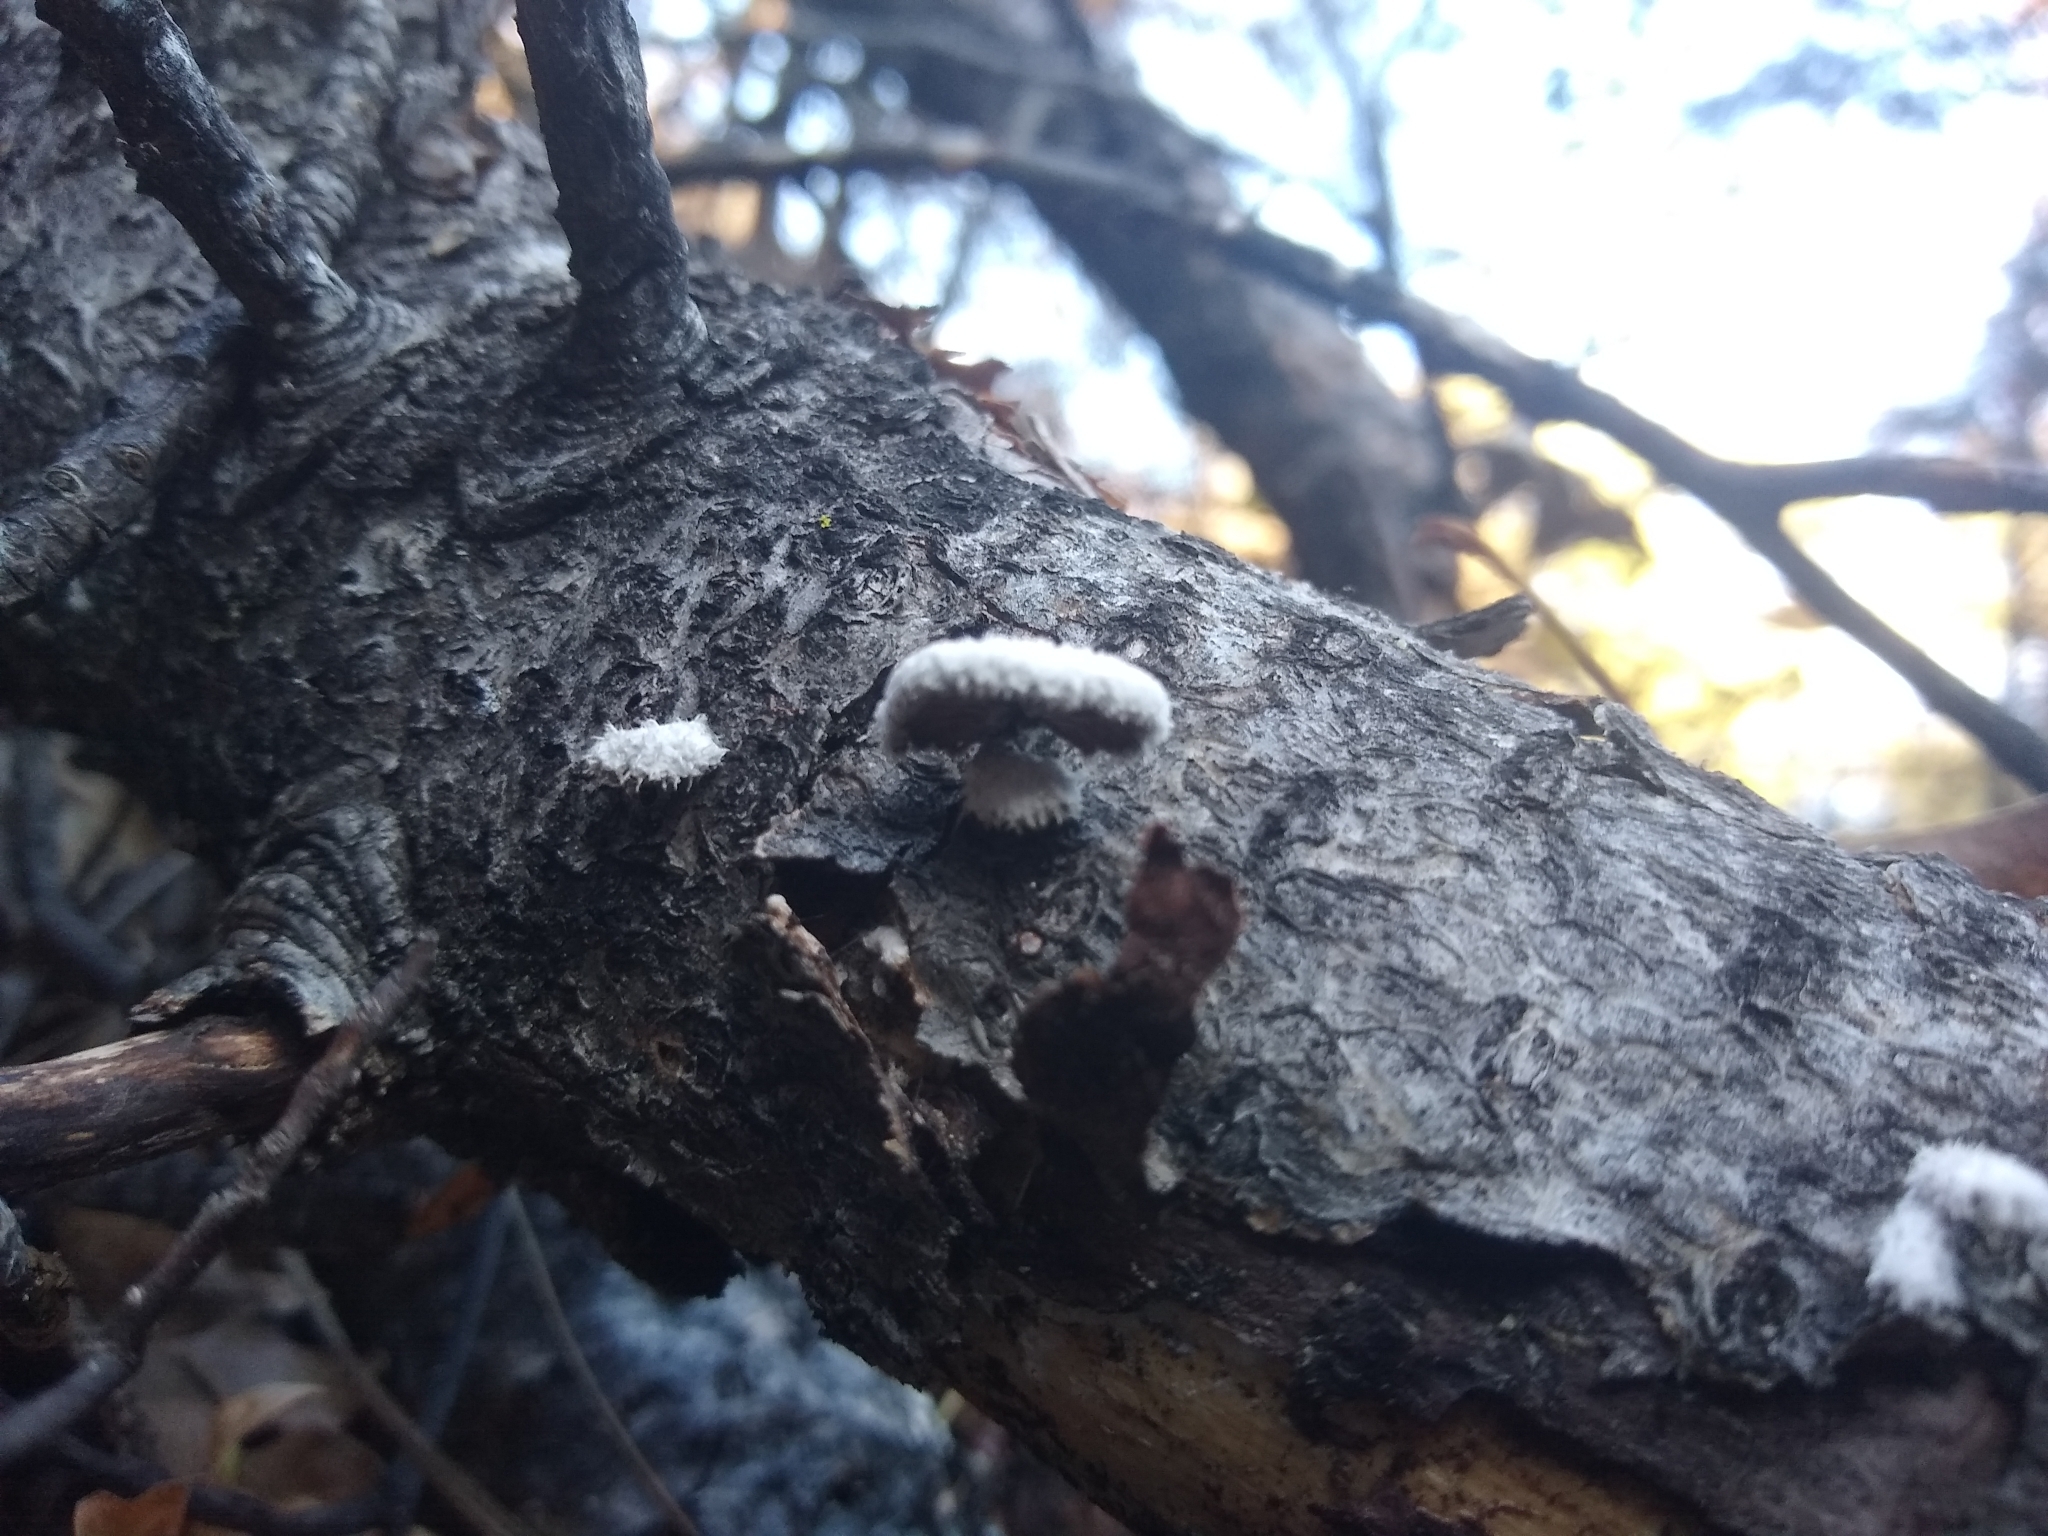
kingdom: Fungi
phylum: Basidiomycota
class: Agaricomycetes
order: Agaricales
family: Schizophyllaceae
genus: Schizophyllum
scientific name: Schizophyllum commune
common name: Common porecrust
